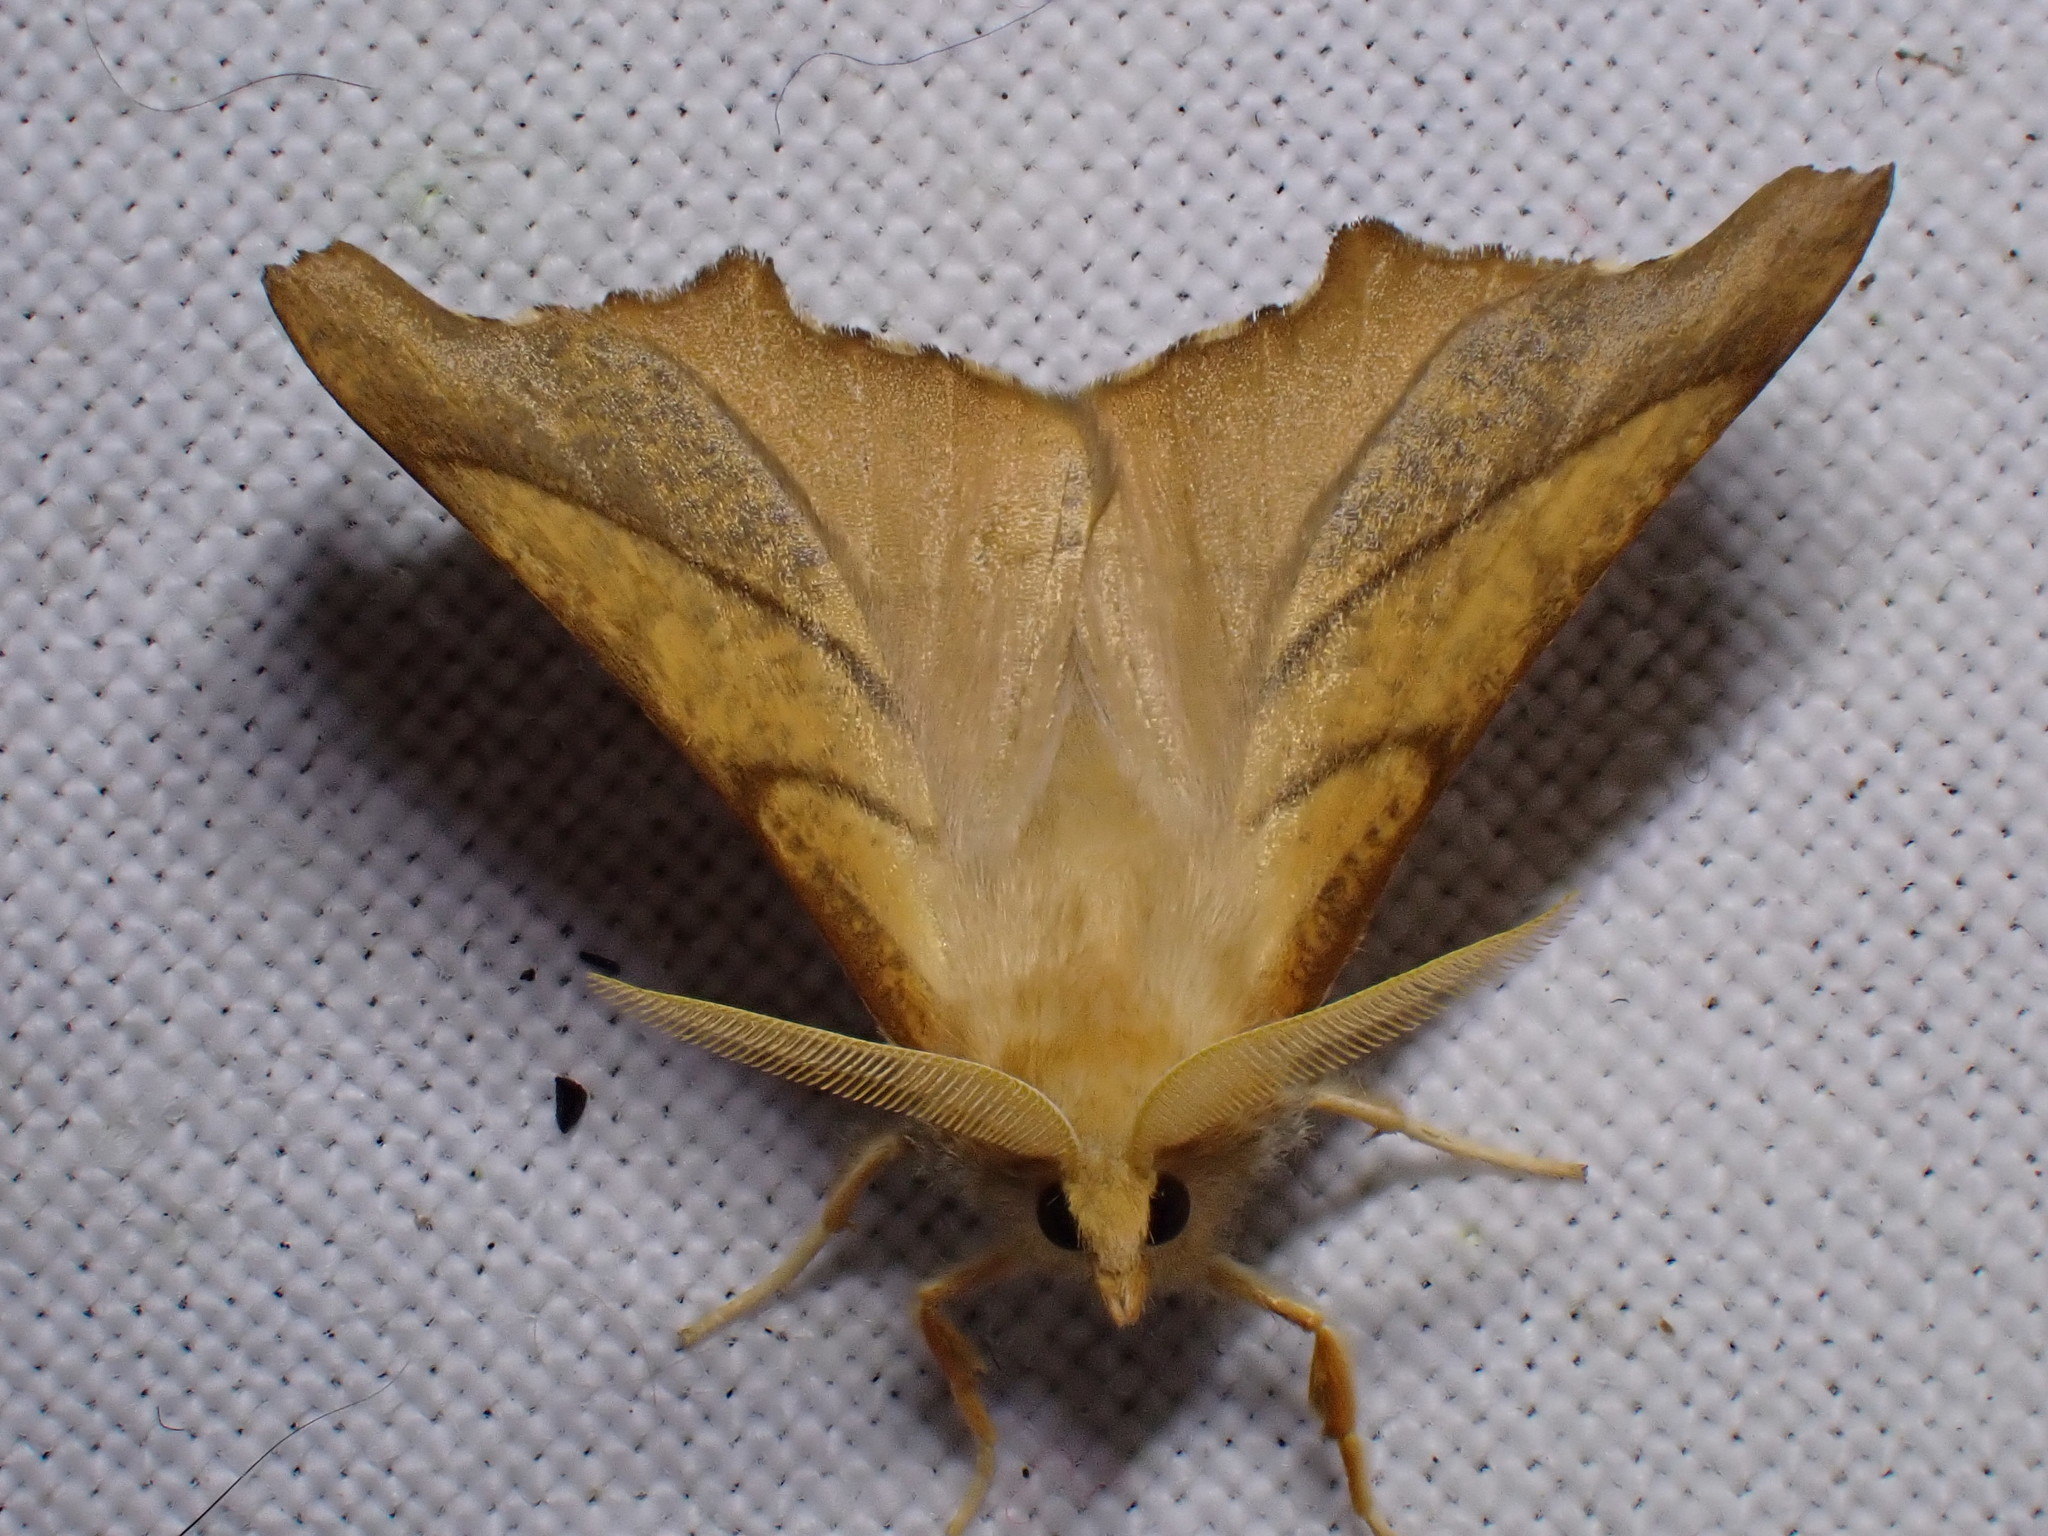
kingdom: Animalia
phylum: Arthropoda
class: Insecta
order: Lepidoptera
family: Geometridae
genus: Ennomos
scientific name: Ennomos fuscantaria
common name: Dusky thorn
